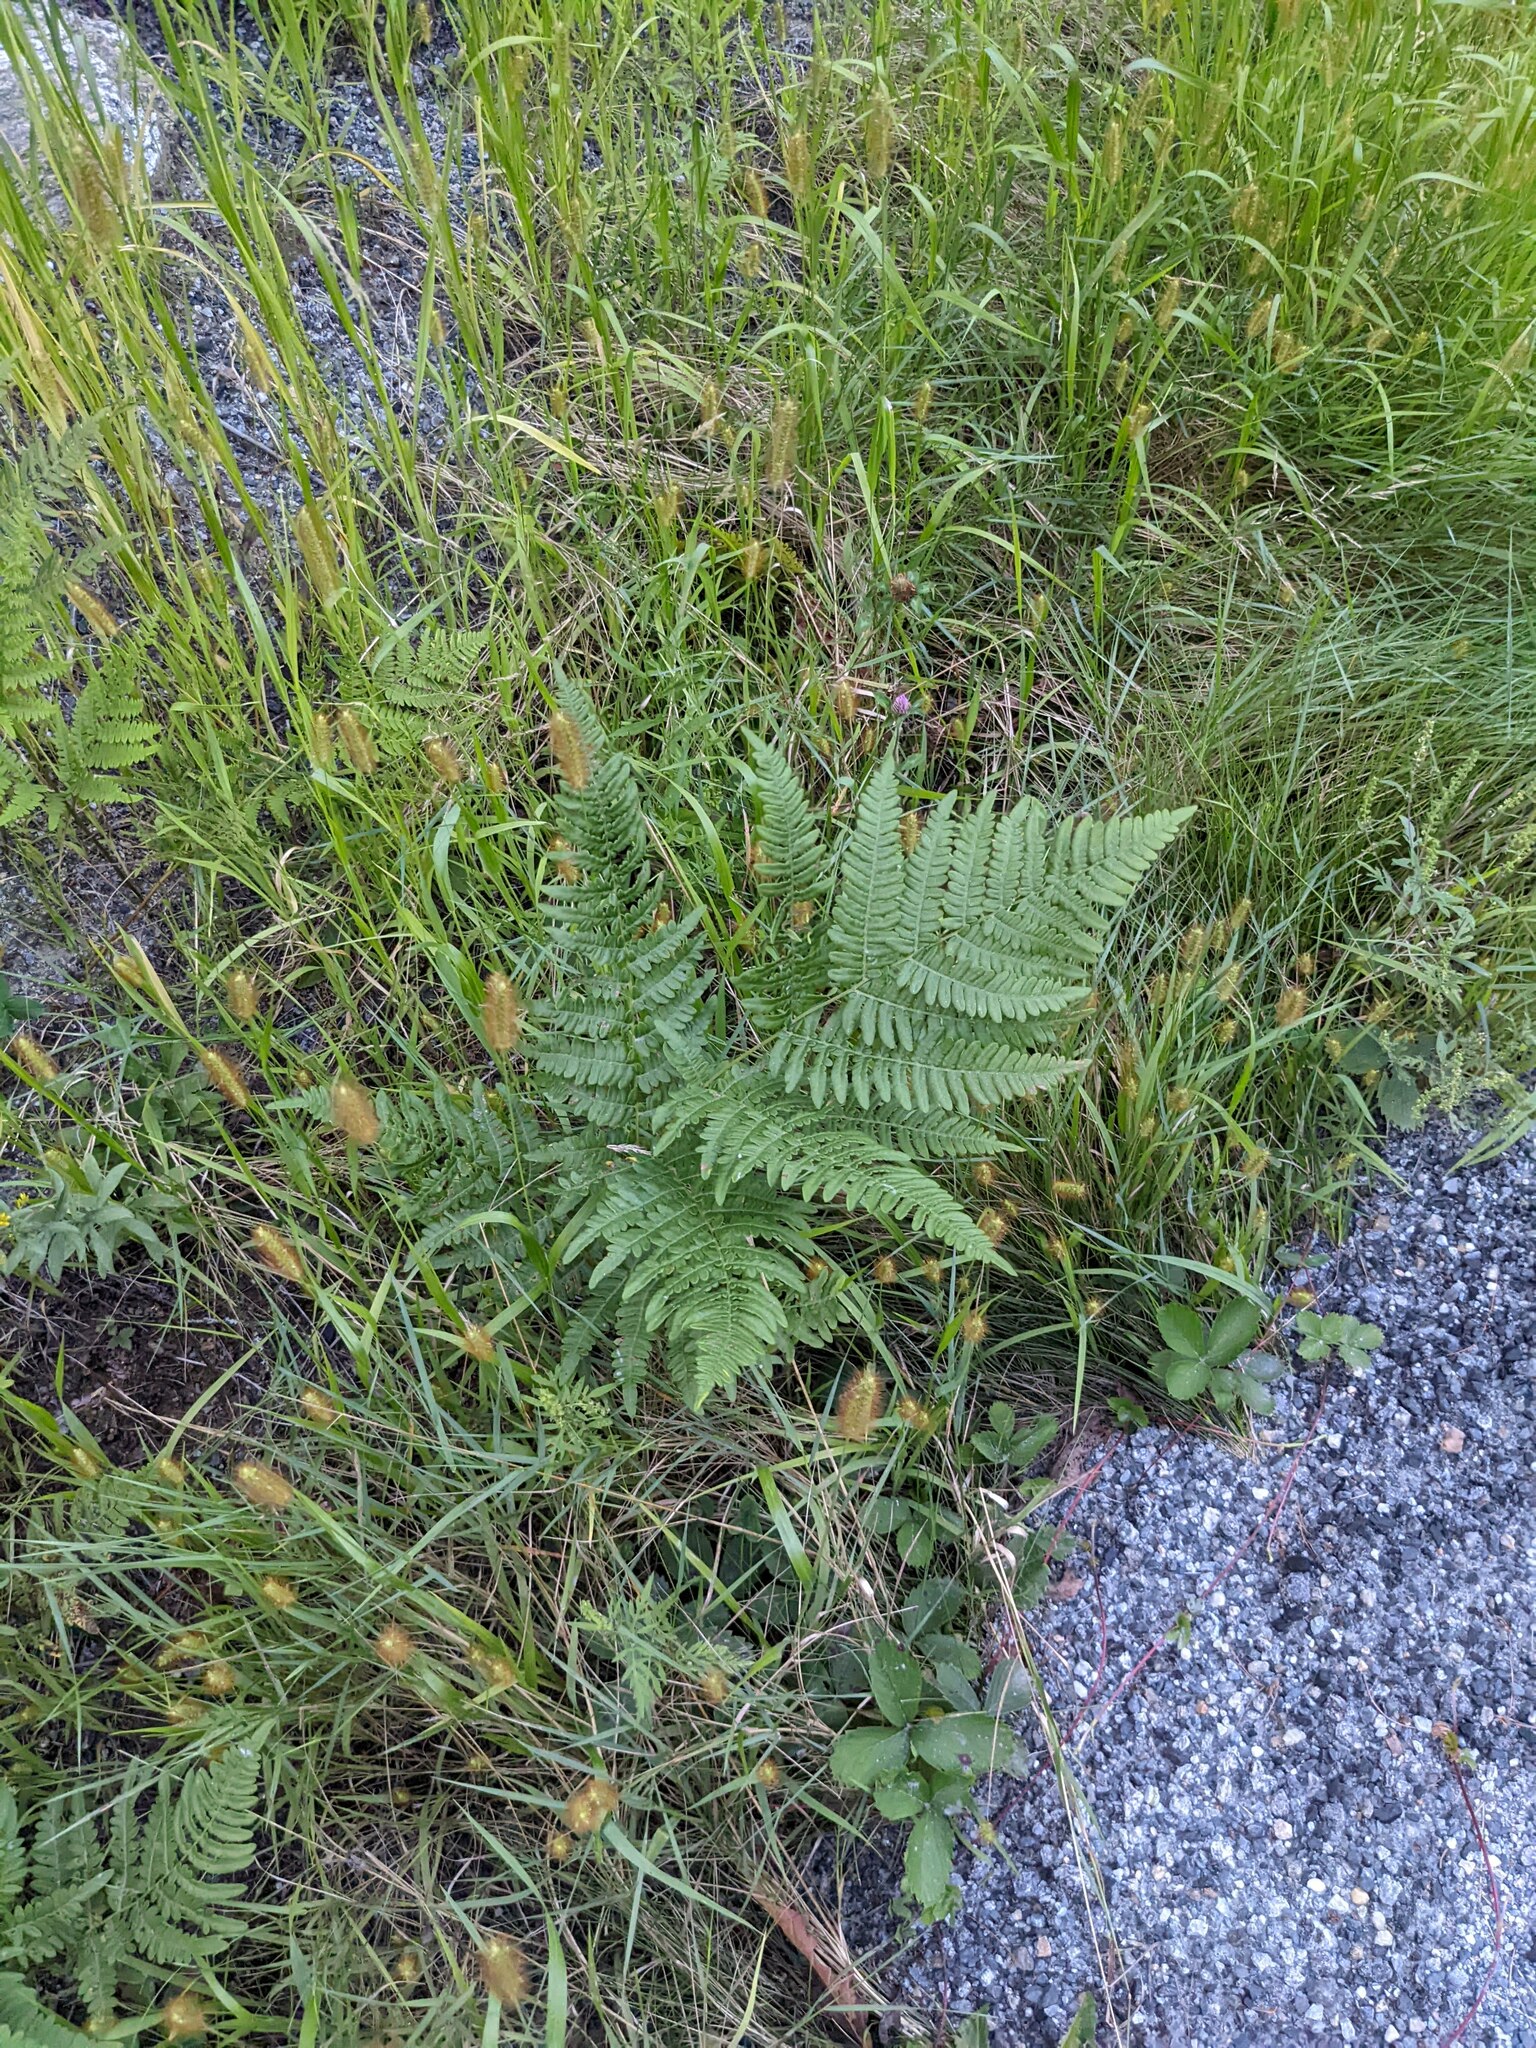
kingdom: Plantae
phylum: Tracheophyta
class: Polypodiopsida
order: Polypodiales
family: Dennstaedtiaceae
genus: Pteridium
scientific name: Pteridium aquilinum
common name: Bracken
